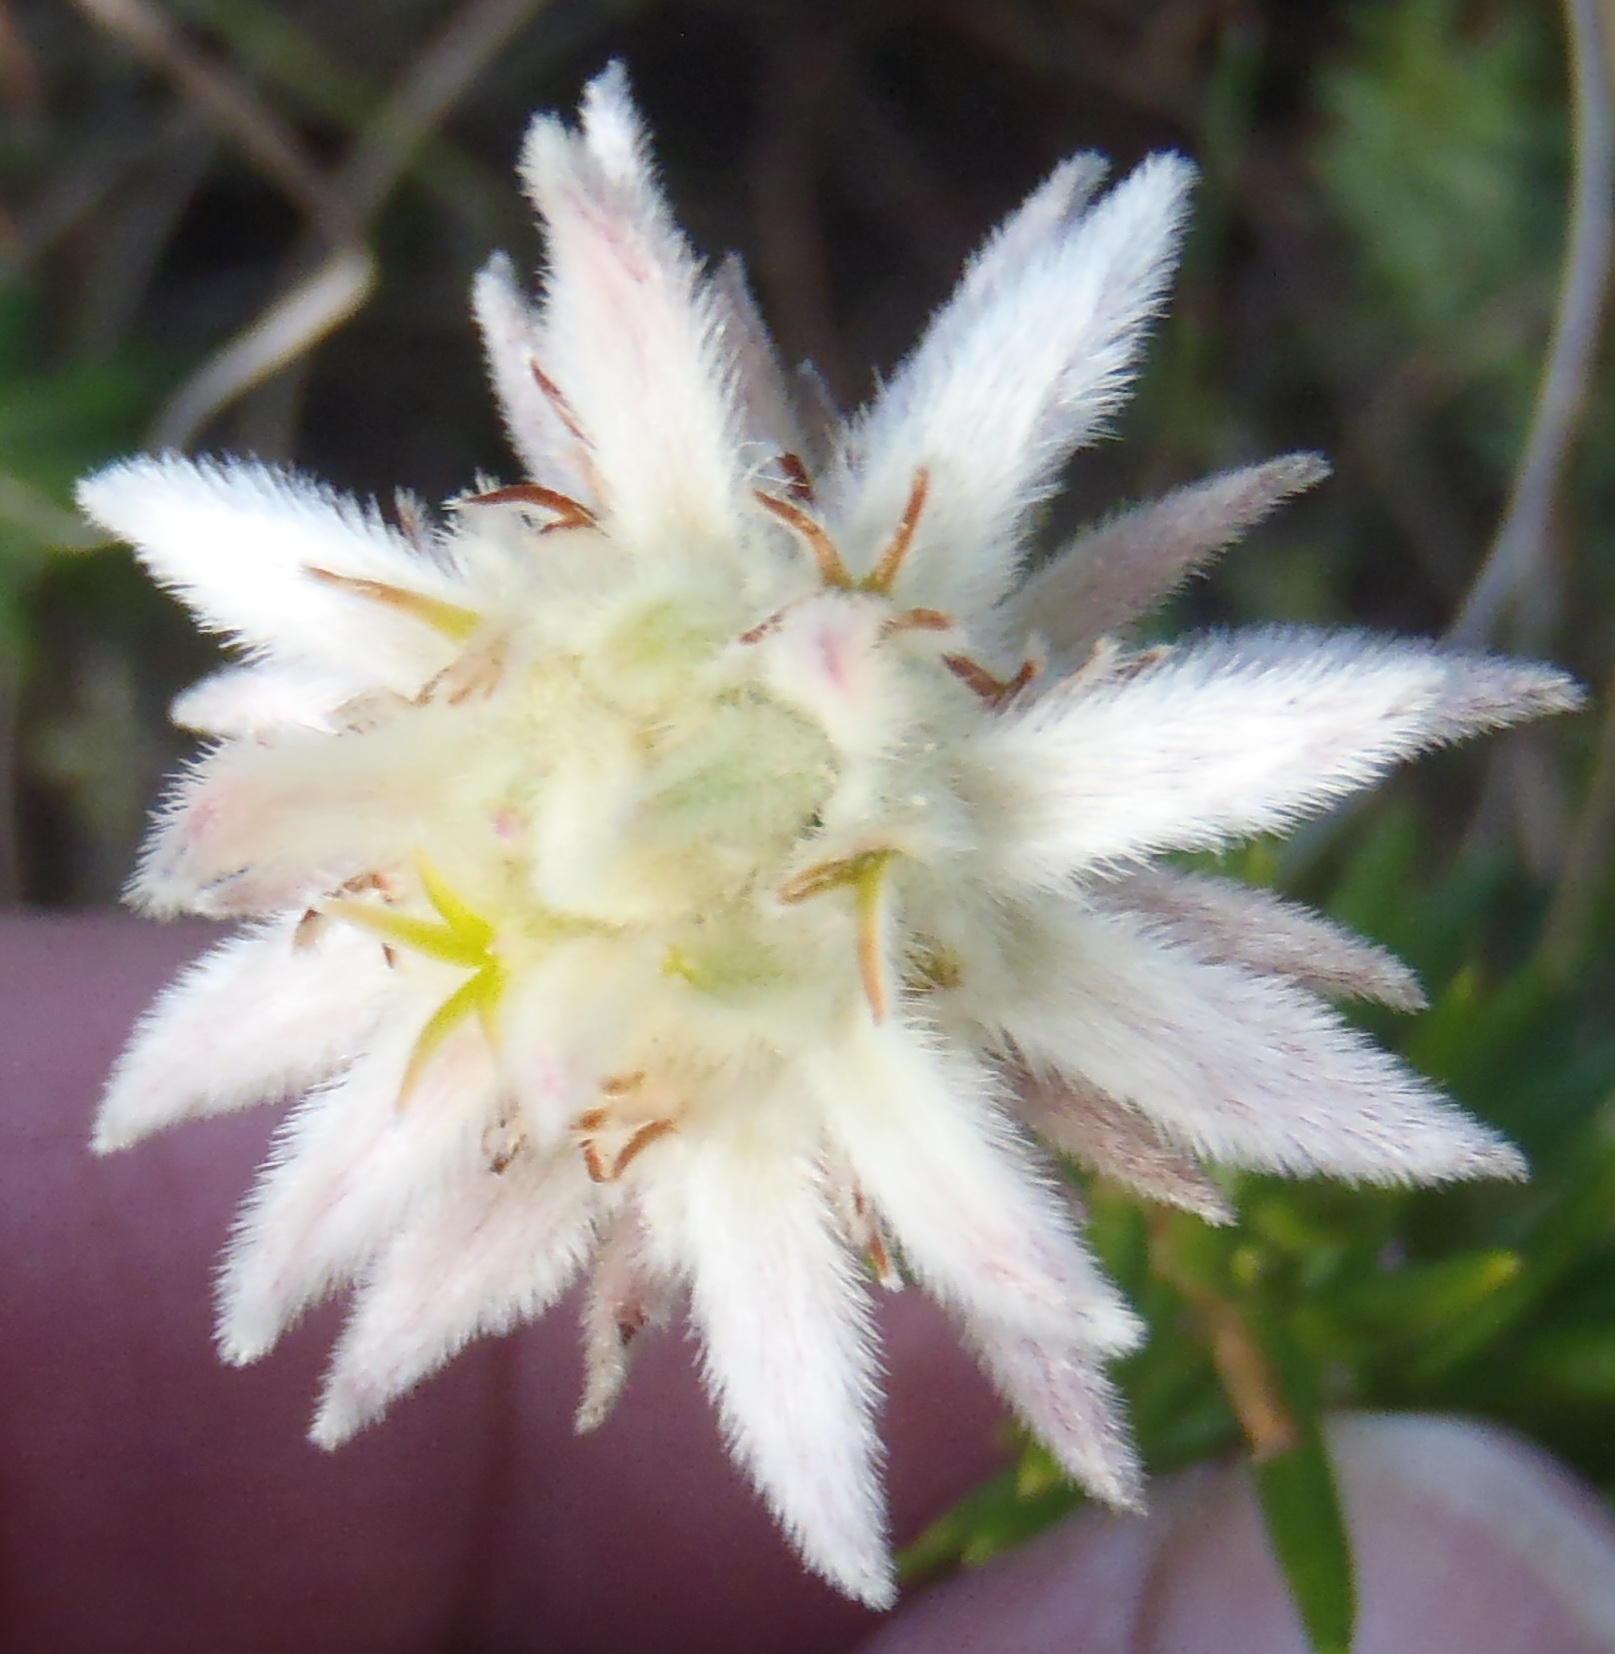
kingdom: Plantae
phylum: Tracheophyta
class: Magnoliopsida
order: Rosales
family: Rhamnaceae
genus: Phylica
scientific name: Phylica dodii
